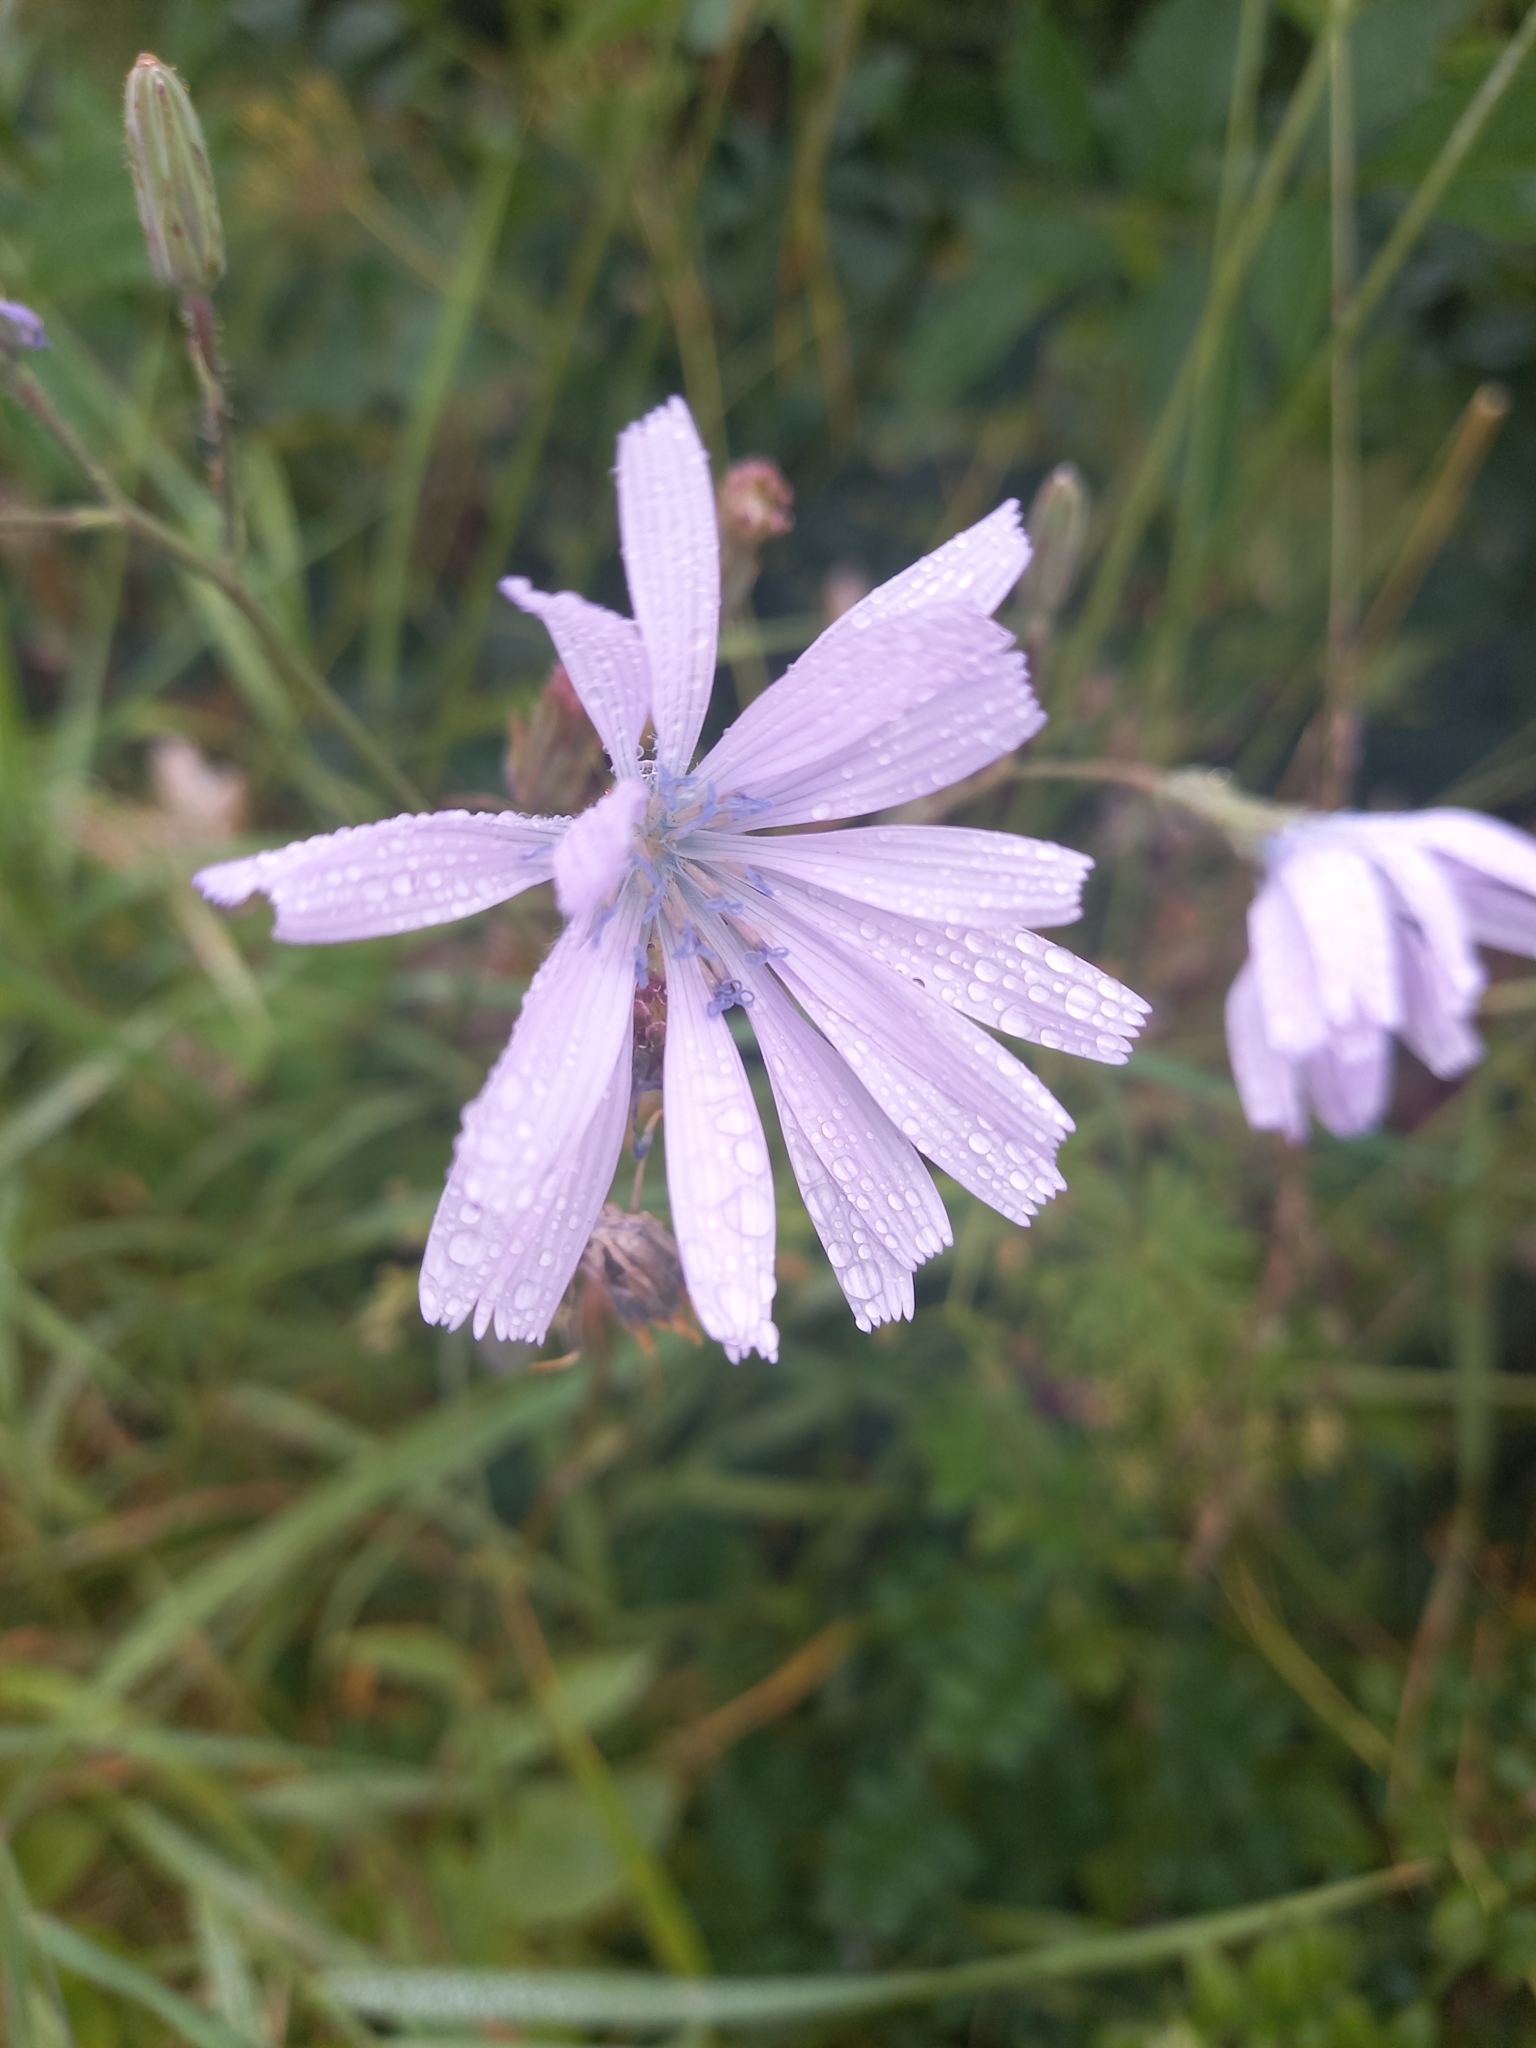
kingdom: Plantae
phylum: Tracheophyta
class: Magnoliopsida
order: Asterales
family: Asteraceae
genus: Lactuca
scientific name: Lactuca macrophylla
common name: Common blue-sow-thistle
